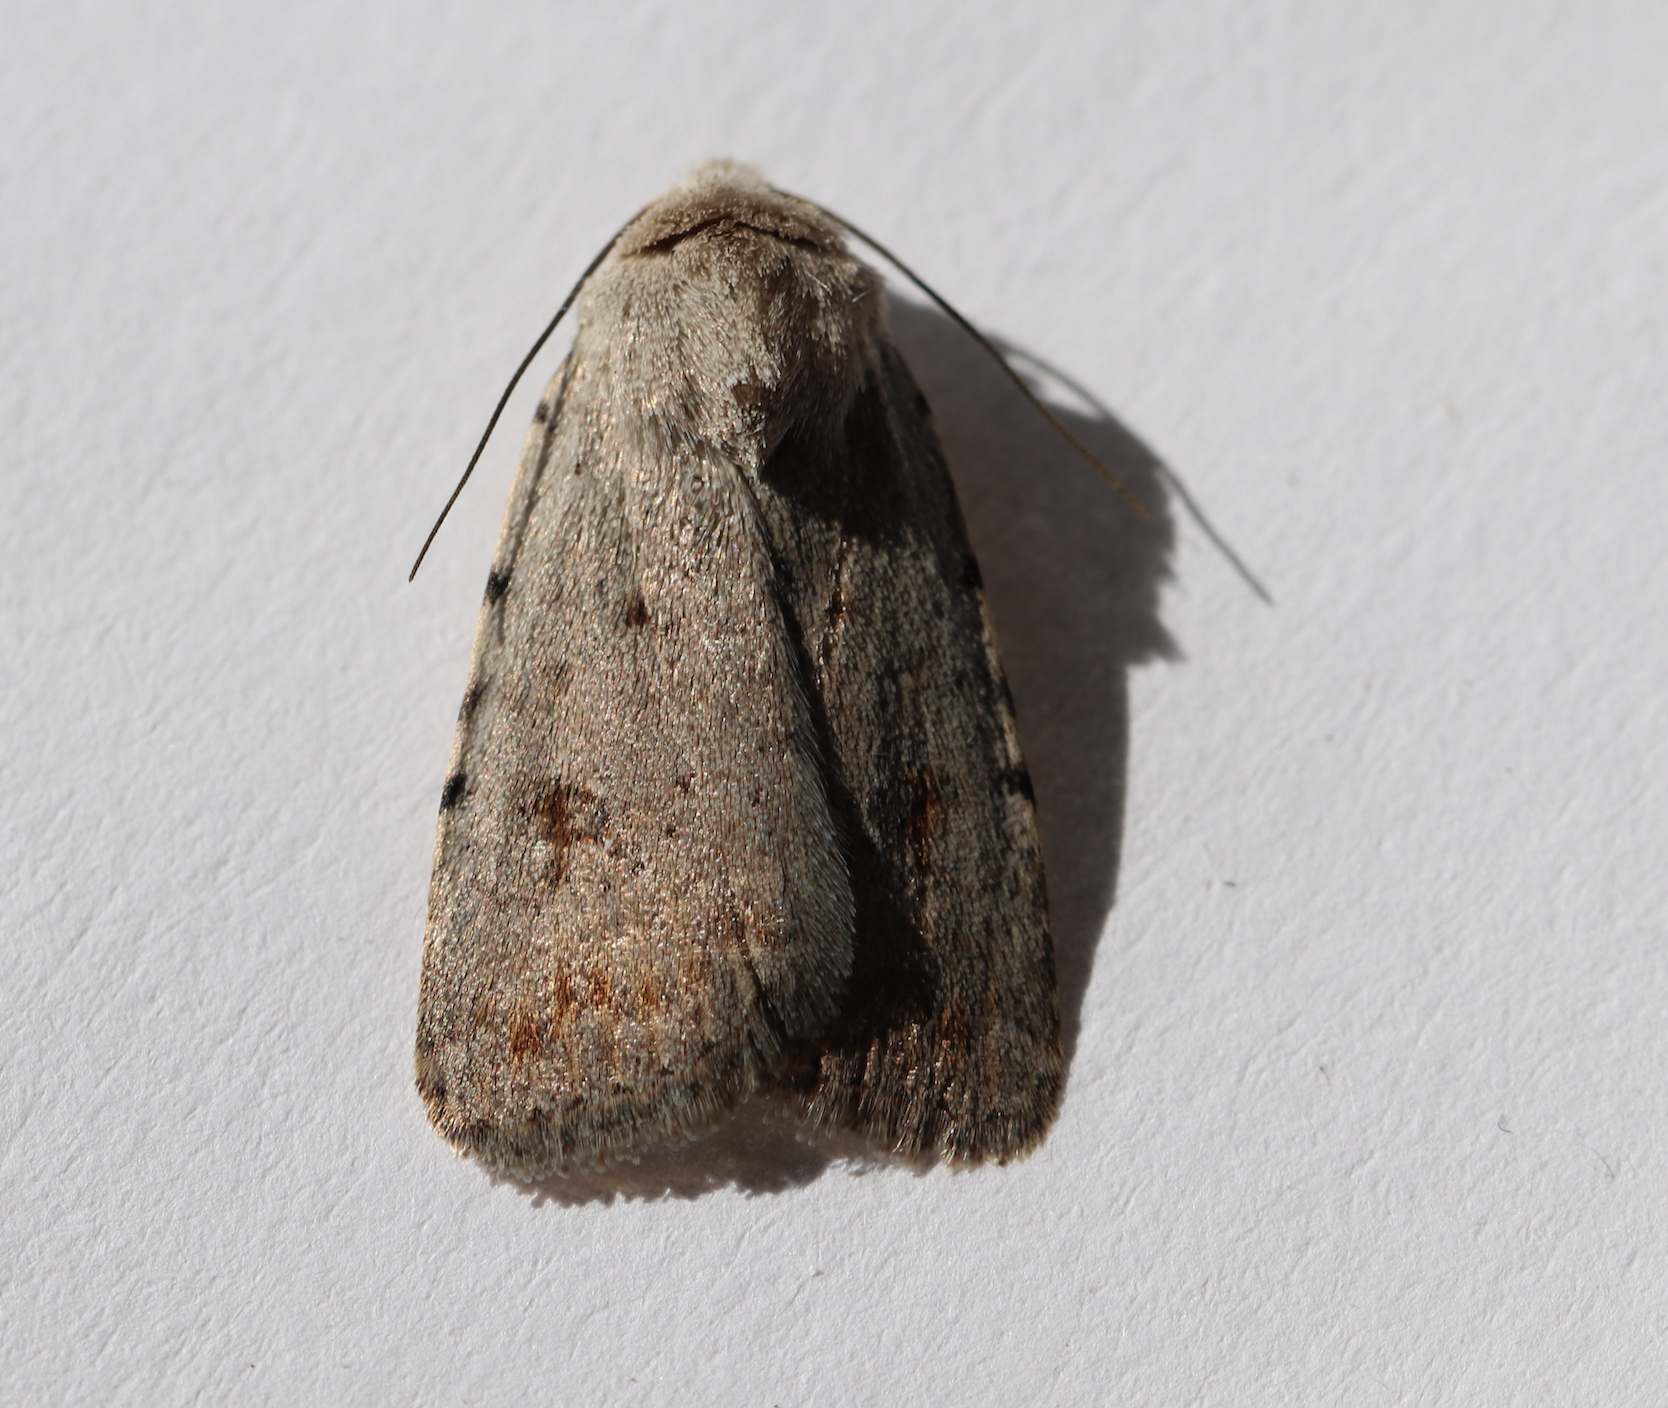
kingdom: Animalia
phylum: Arthropoda
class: Insecta
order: Lepidoptera
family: Noctuidae
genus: Caradrina
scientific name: Caradrina clavipalpis
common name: Pale mottled willow
